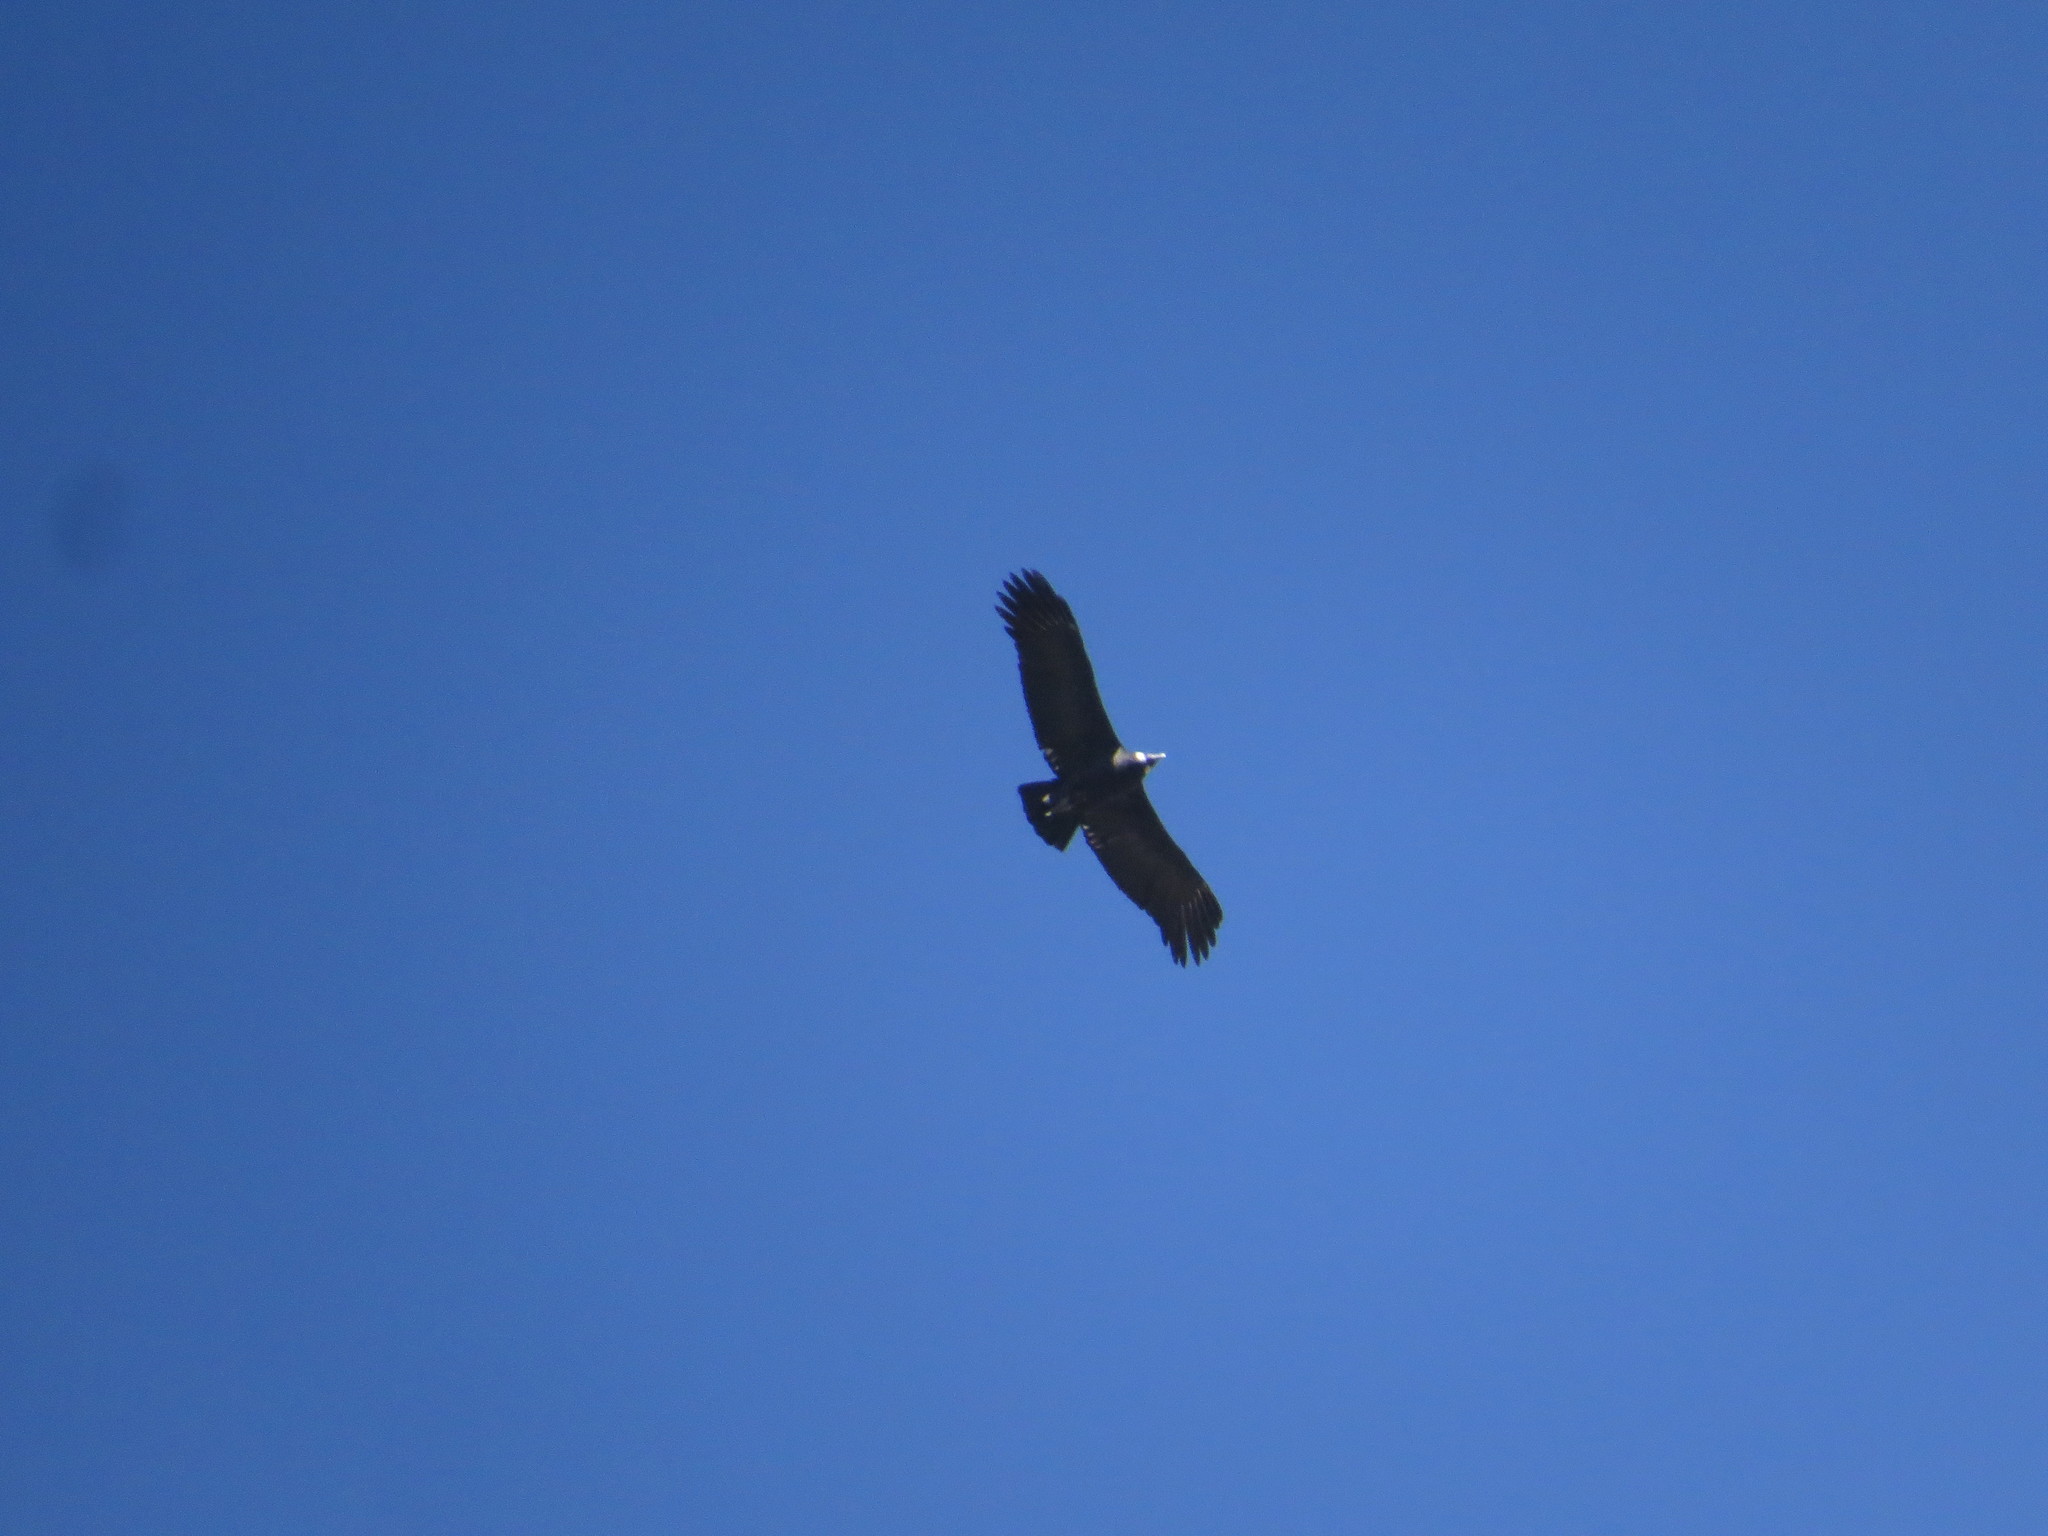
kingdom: Animalia
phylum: Chordata
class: Aves
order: Accipitriformes
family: Cathartidae
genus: Vultur
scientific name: Vultur gryphus
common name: Andean condor
